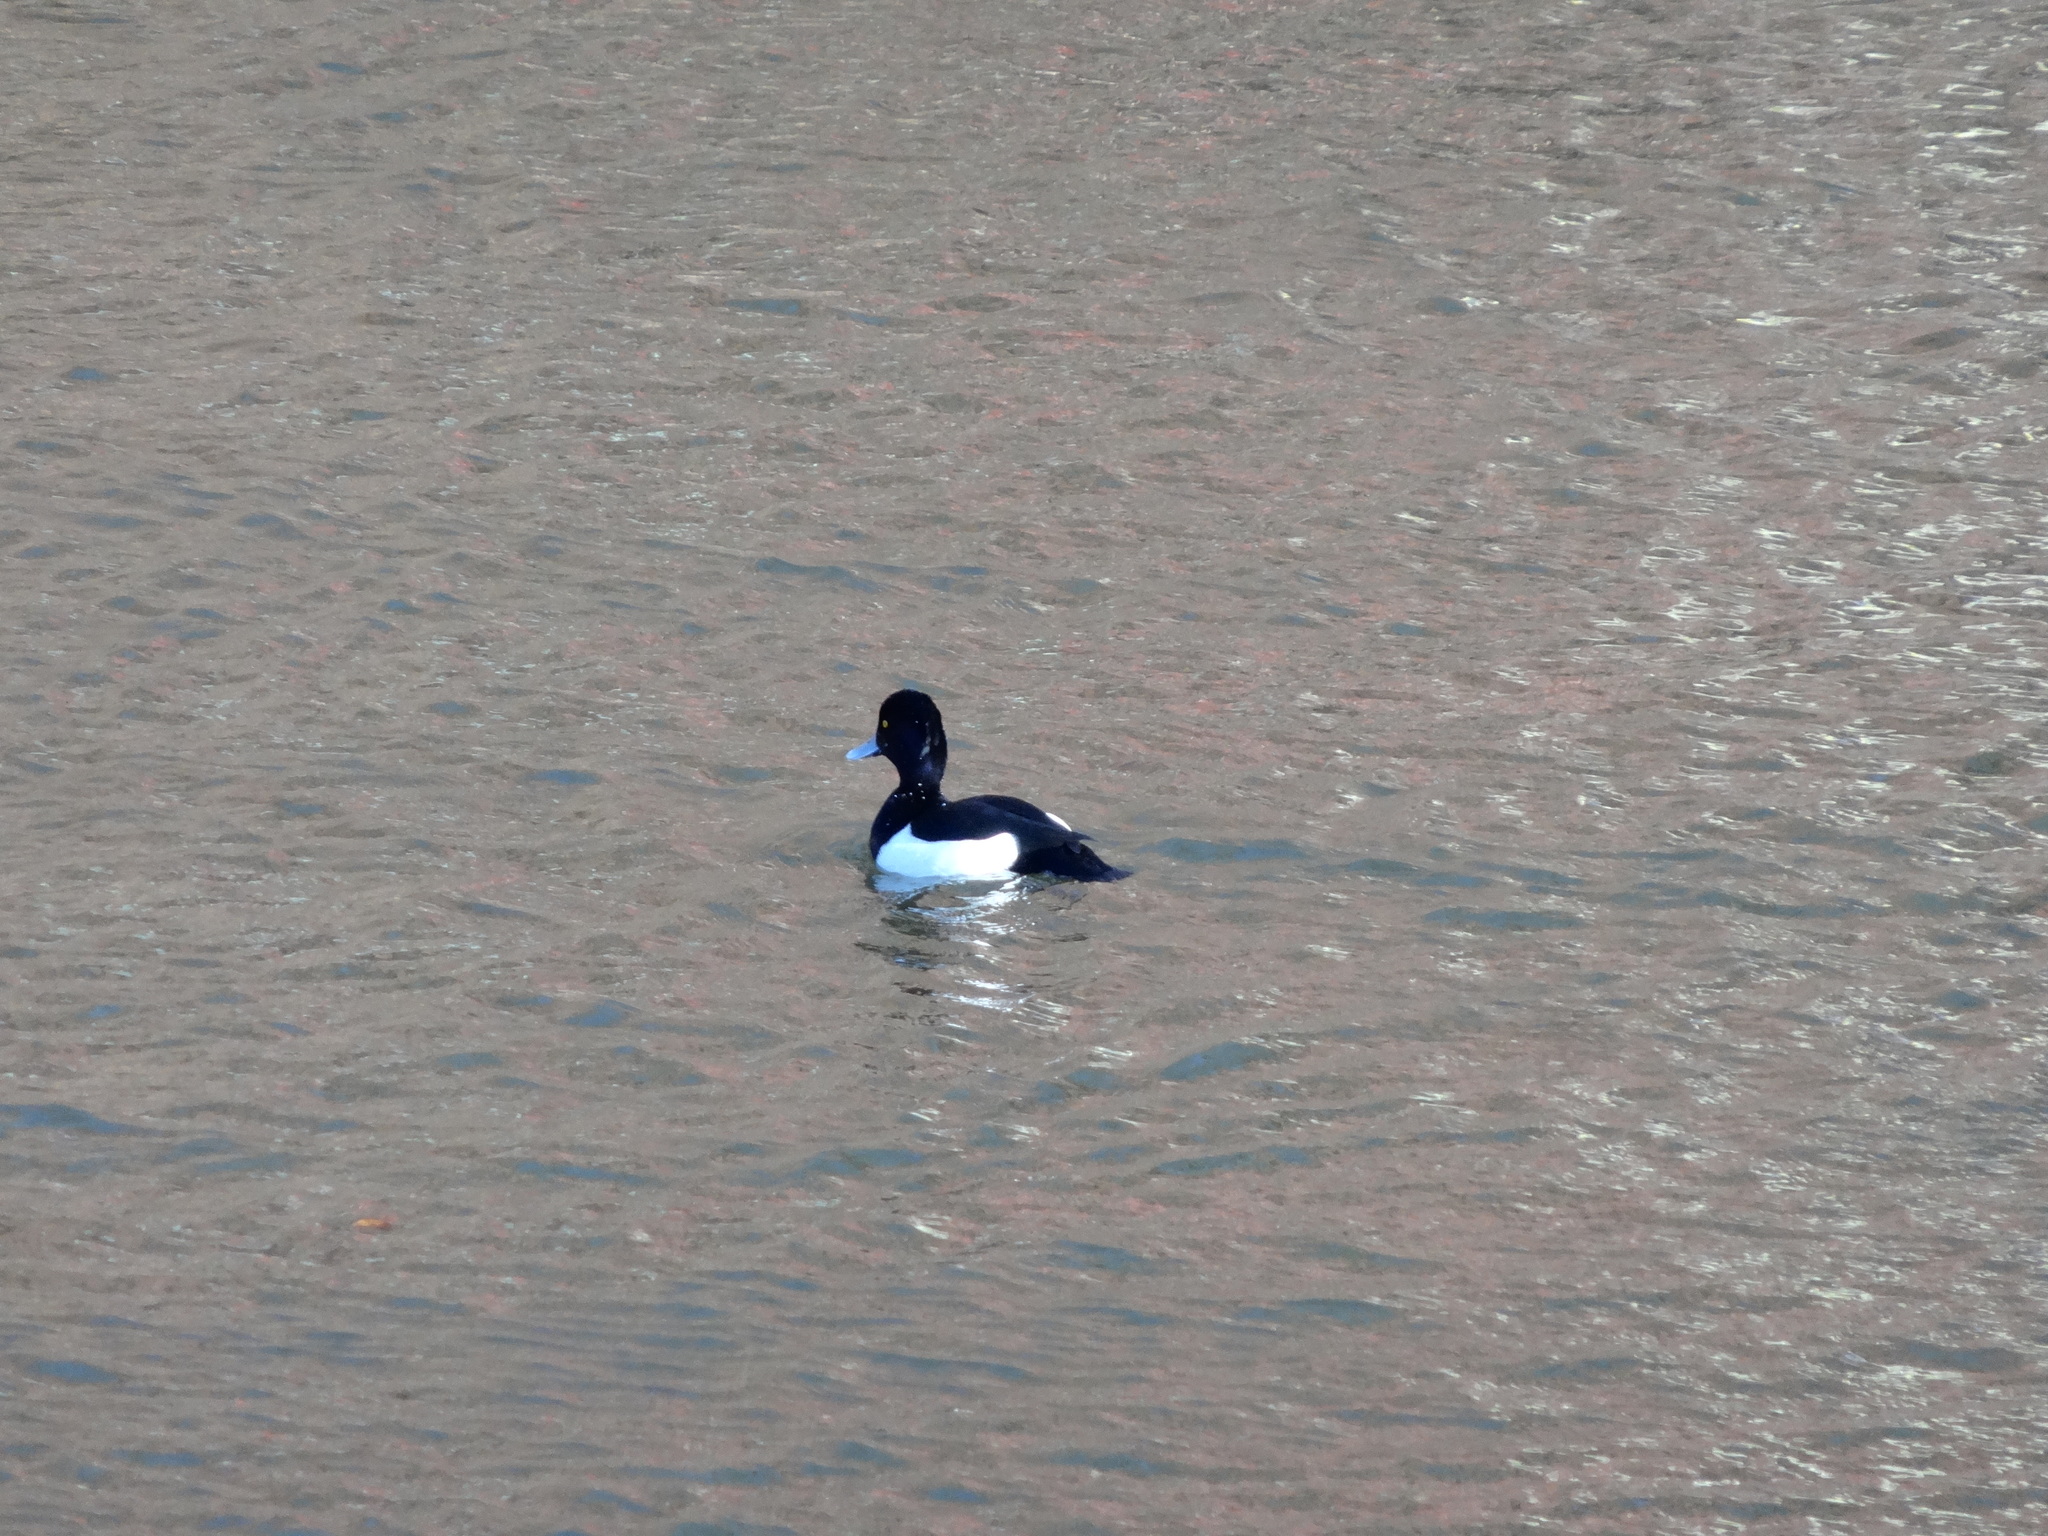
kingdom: Animalia
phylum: Chordata
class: Aves
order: Anseriformes
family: Anatidae
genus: Aythya
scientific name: Aythya fuligula
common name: Tufted duck
